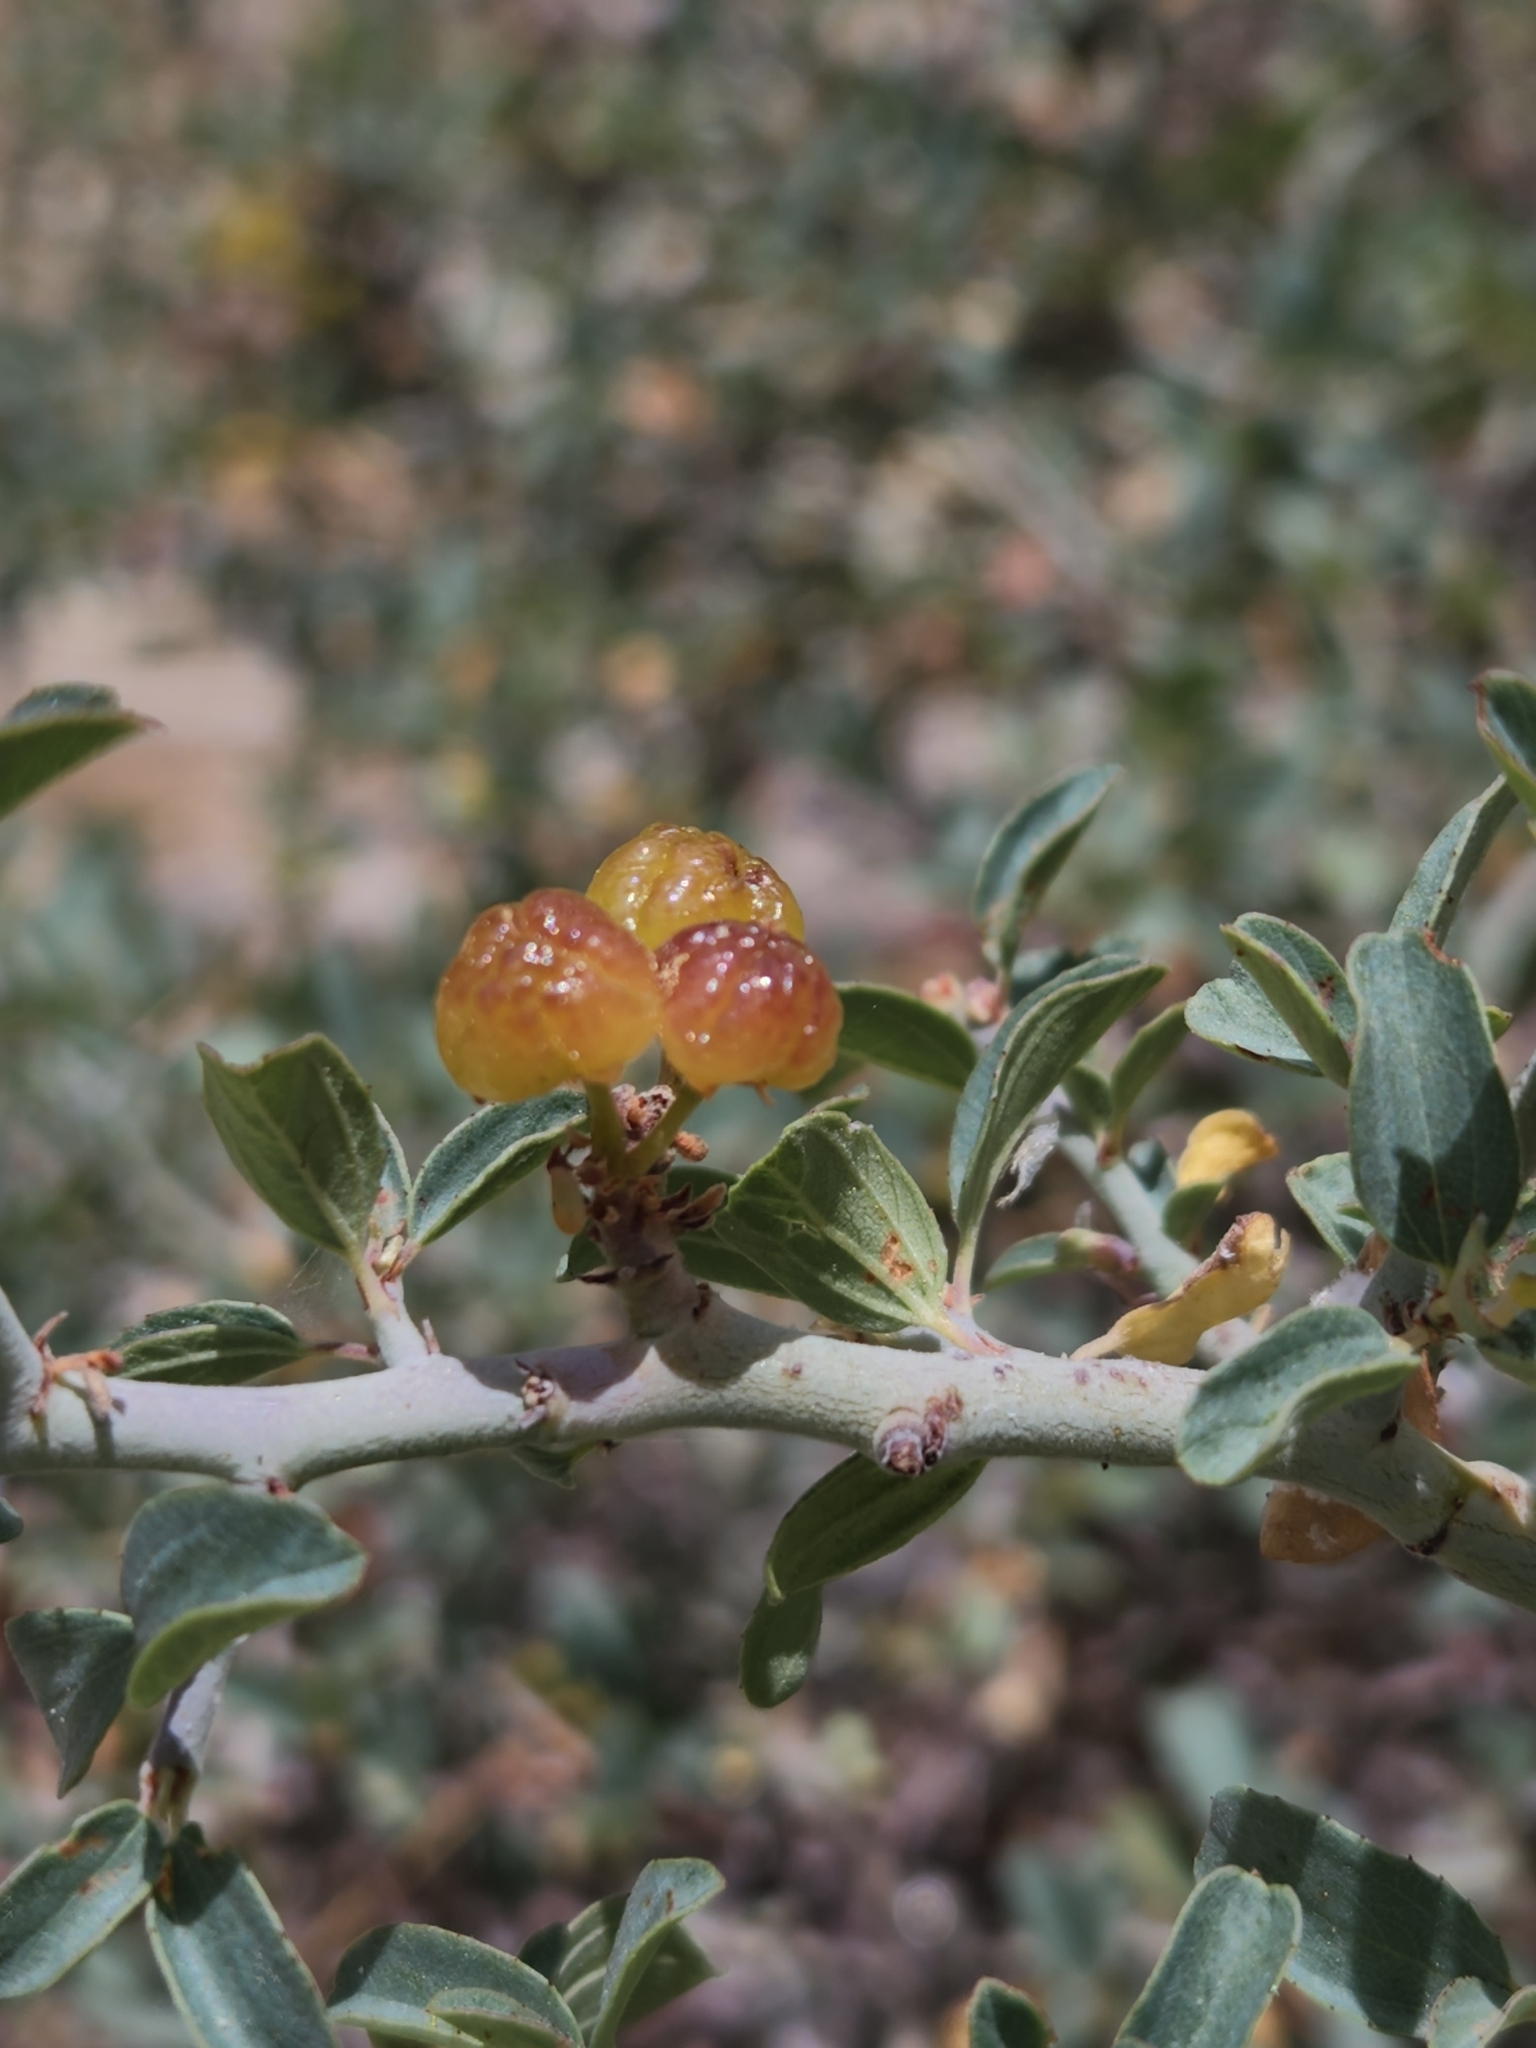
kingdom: Plantae
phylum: Tracheophyta
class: Magnoliopsida
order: Rosales
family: Rhamnaceae
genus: Ceanothus
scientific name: Ceanothus cordulatus
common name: Mountain whitethorn
